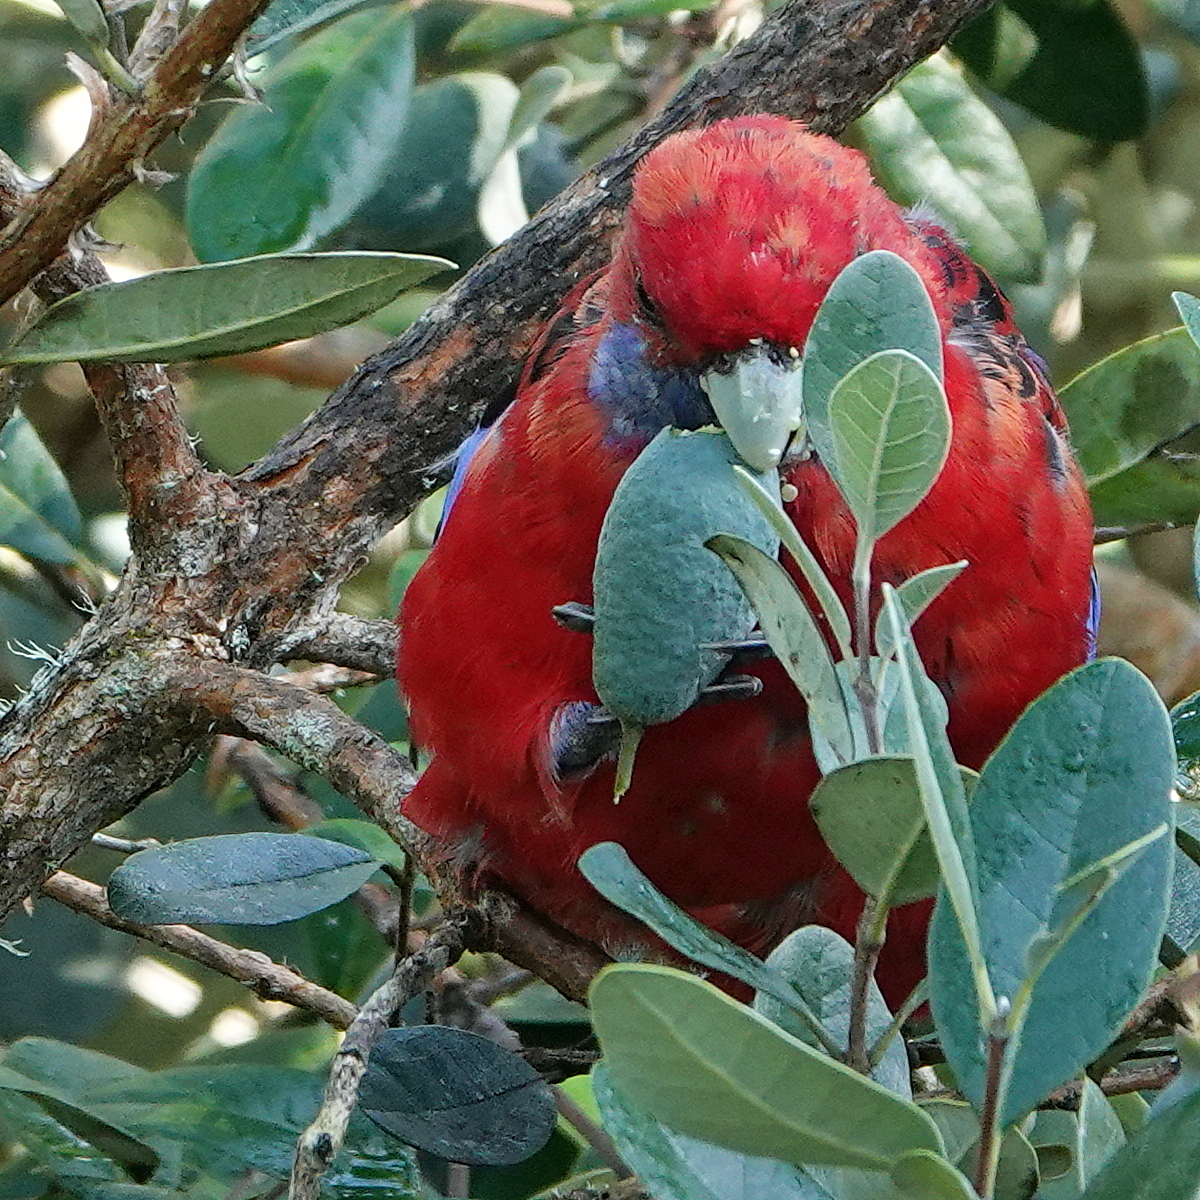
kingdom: Animalia
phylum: Chordata
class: Aves
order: Psittaciformes
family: Psittacidae
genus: Platycercus
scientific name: Platycercus elegans
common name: Crimson rosella
